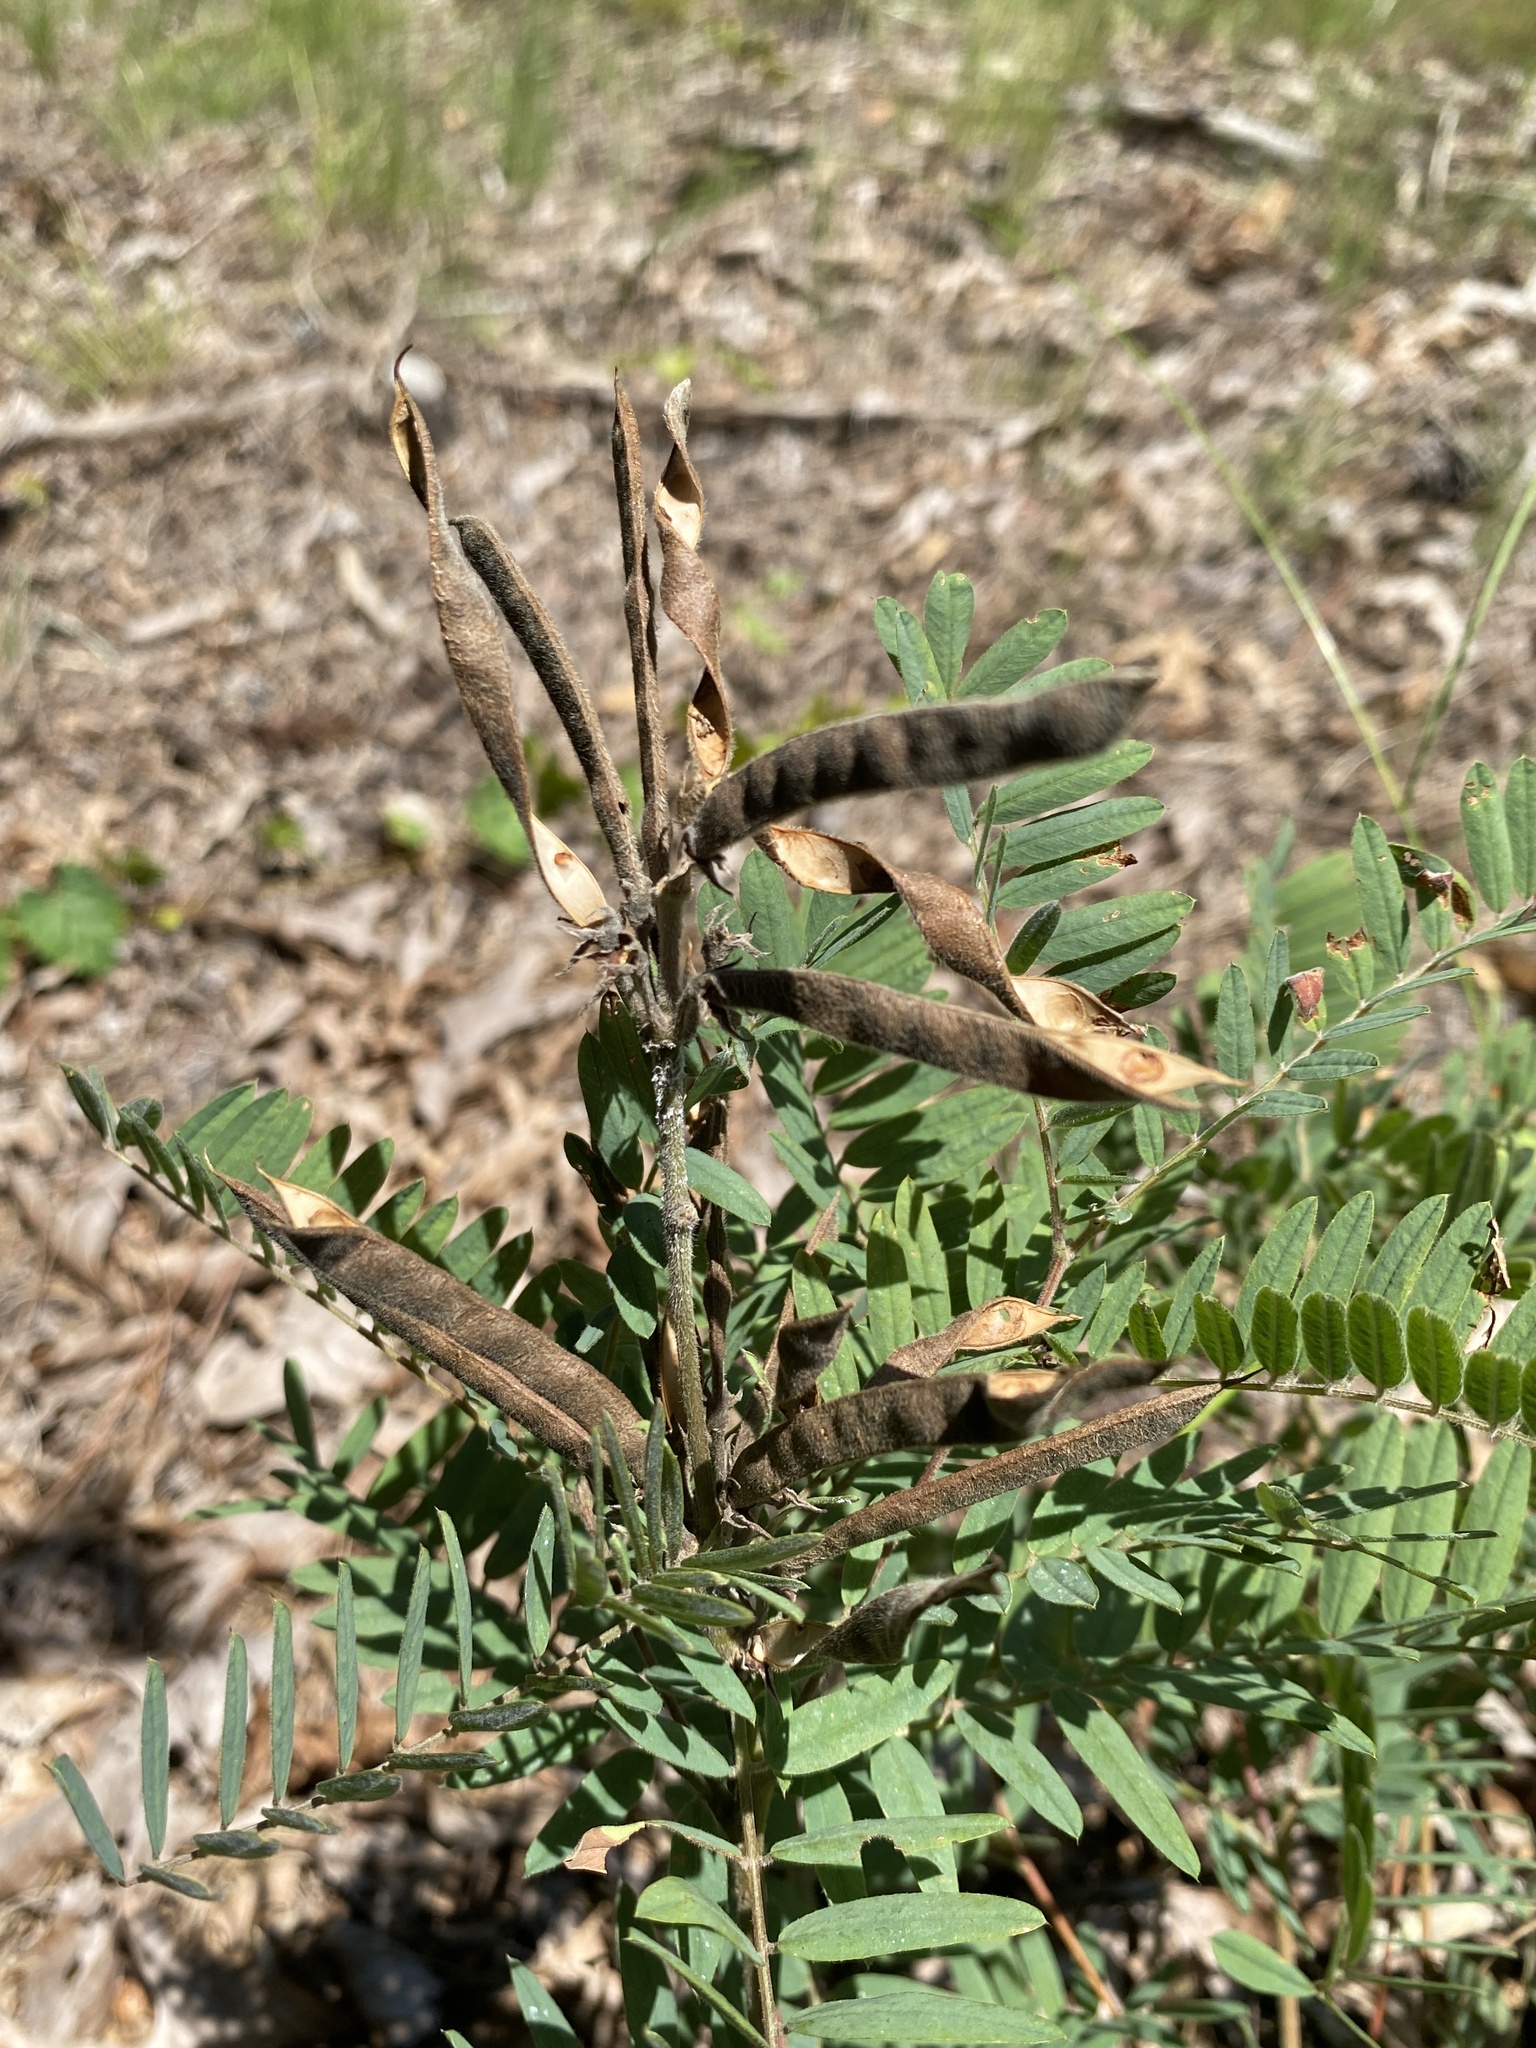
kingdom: Plantae
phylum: Tracheophyta
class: Magnoliopsida
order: Fabales
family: Fabaceae
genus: Tephrosia
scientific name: Tephrosia virginiana
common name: Rabbit-pea
